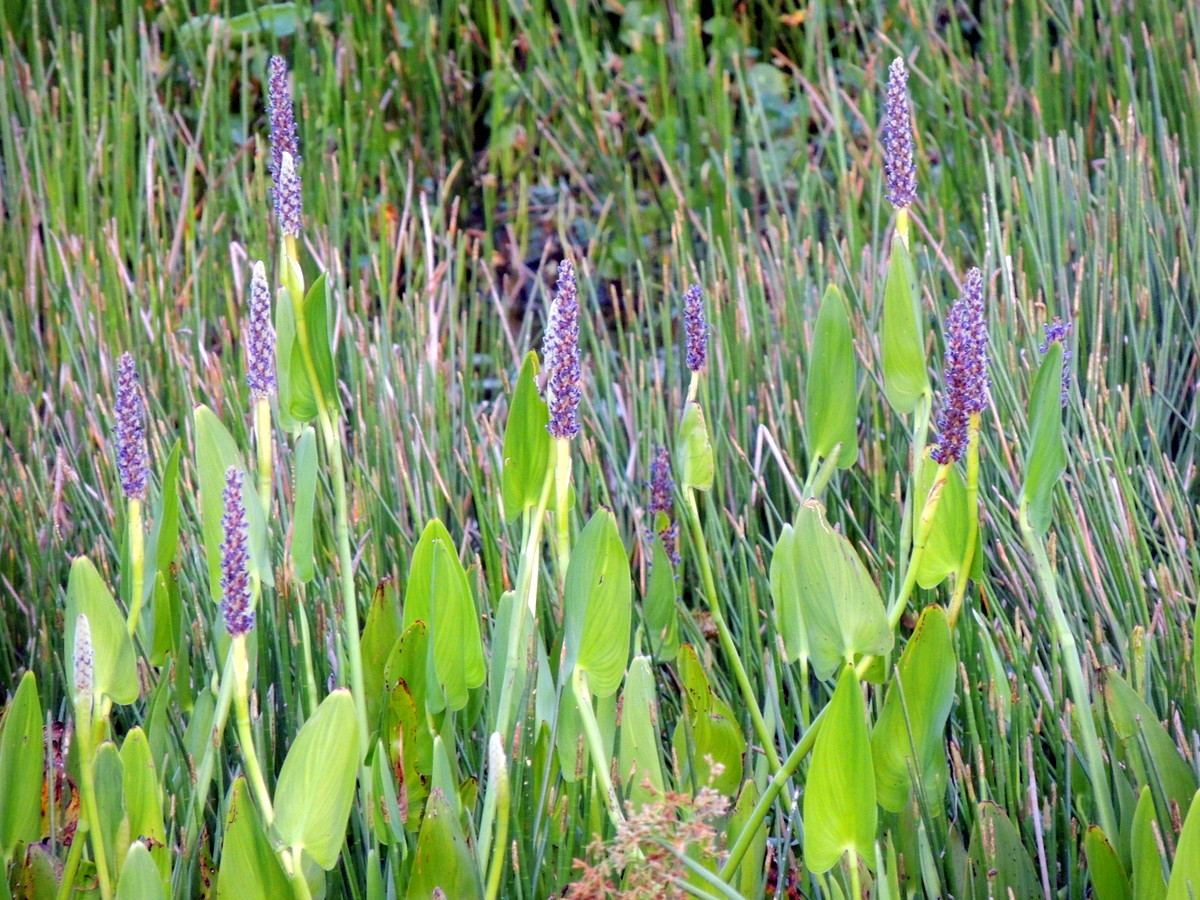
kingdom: Plantae
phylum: Tracheophyta
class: Liliopsida
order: Commelinales
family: Pontederiaceae
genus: Pontederia
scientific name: Pontederia cordata
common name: Pickerelweed
